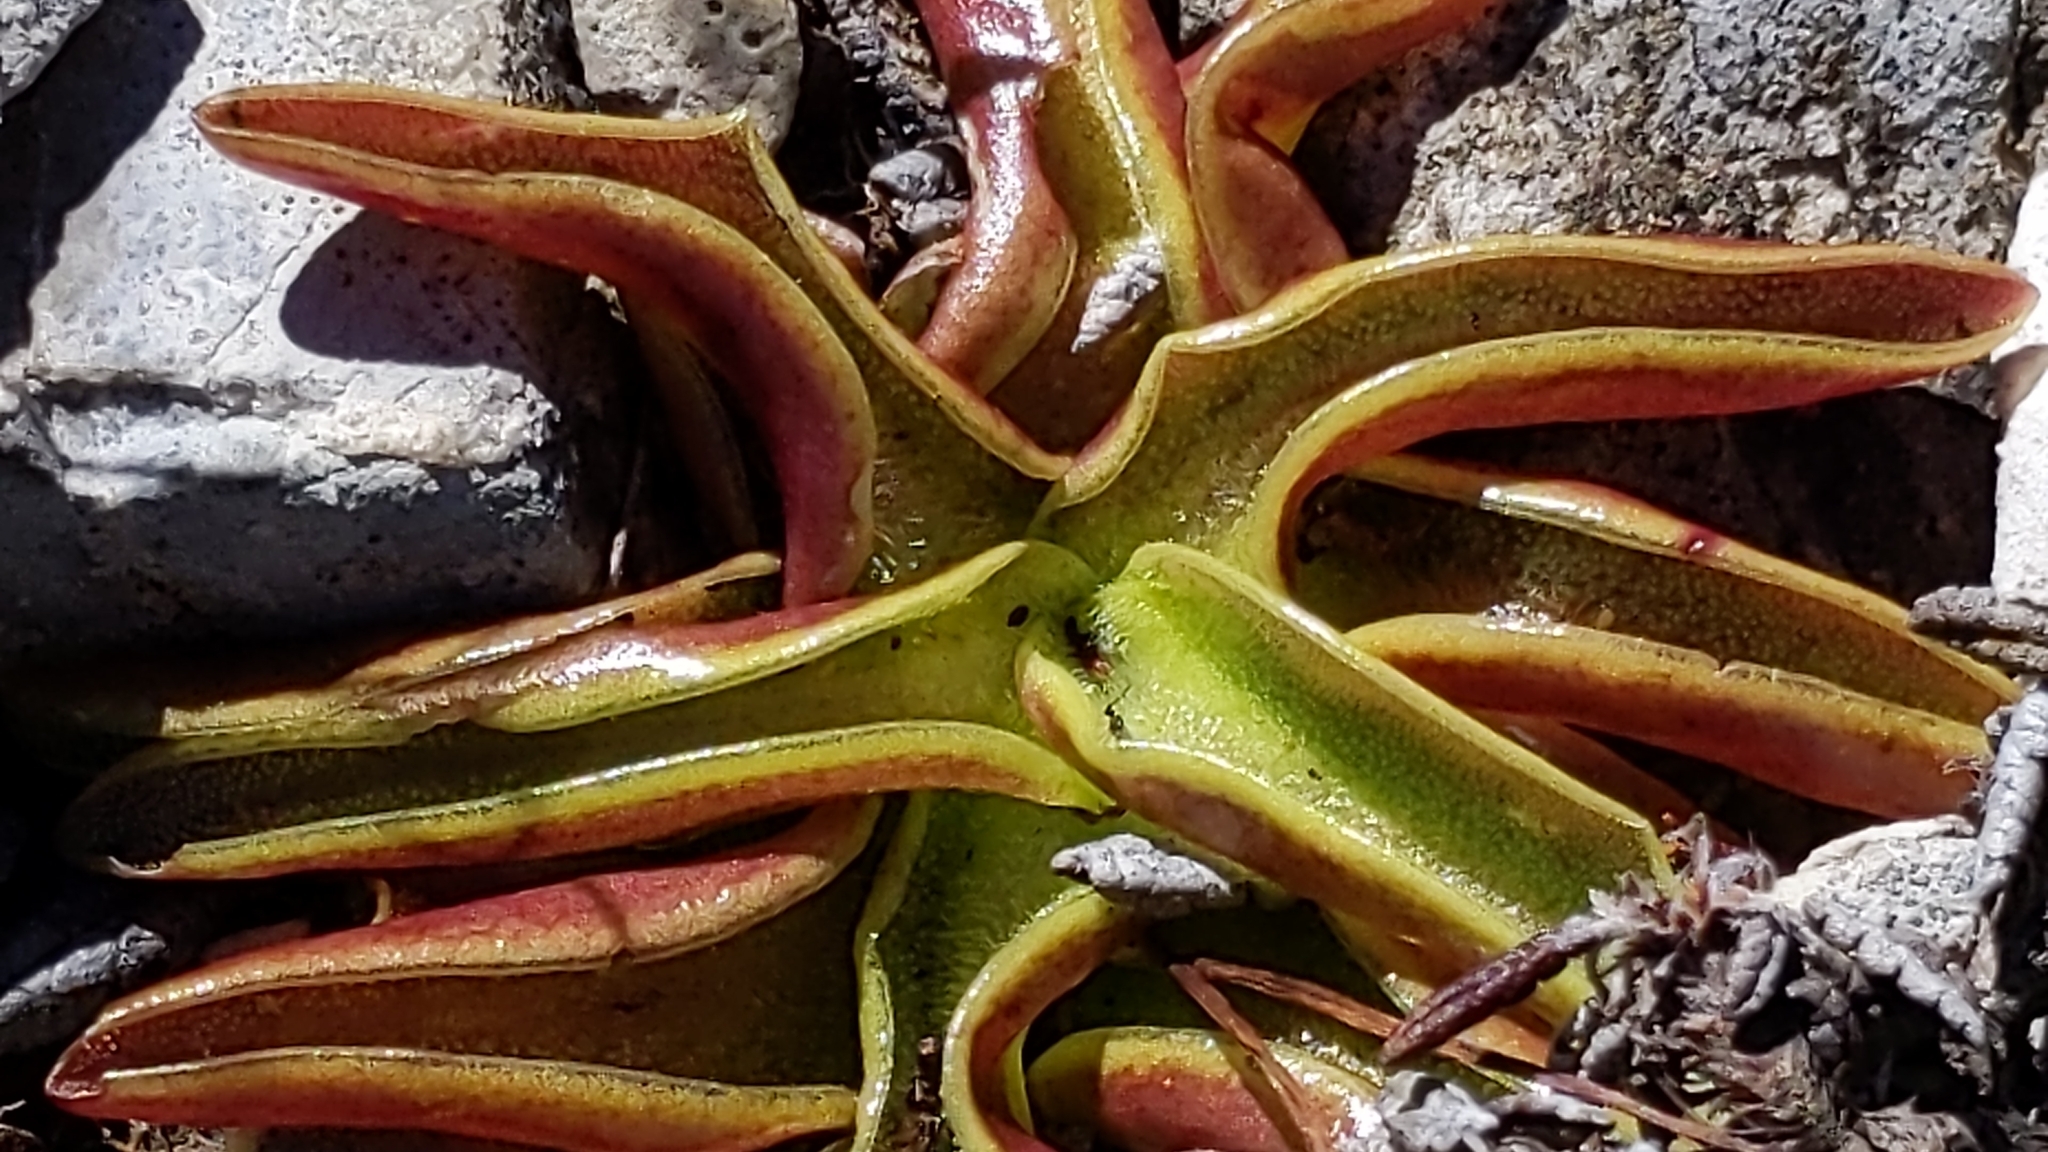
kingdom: Plantae
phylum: Tracheophyta
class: Magnoliopsida
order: Lamiales
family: Lentibulariaceae
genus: Pinguicula
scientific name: Pinguicula alpina
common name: Alpine butterwort
